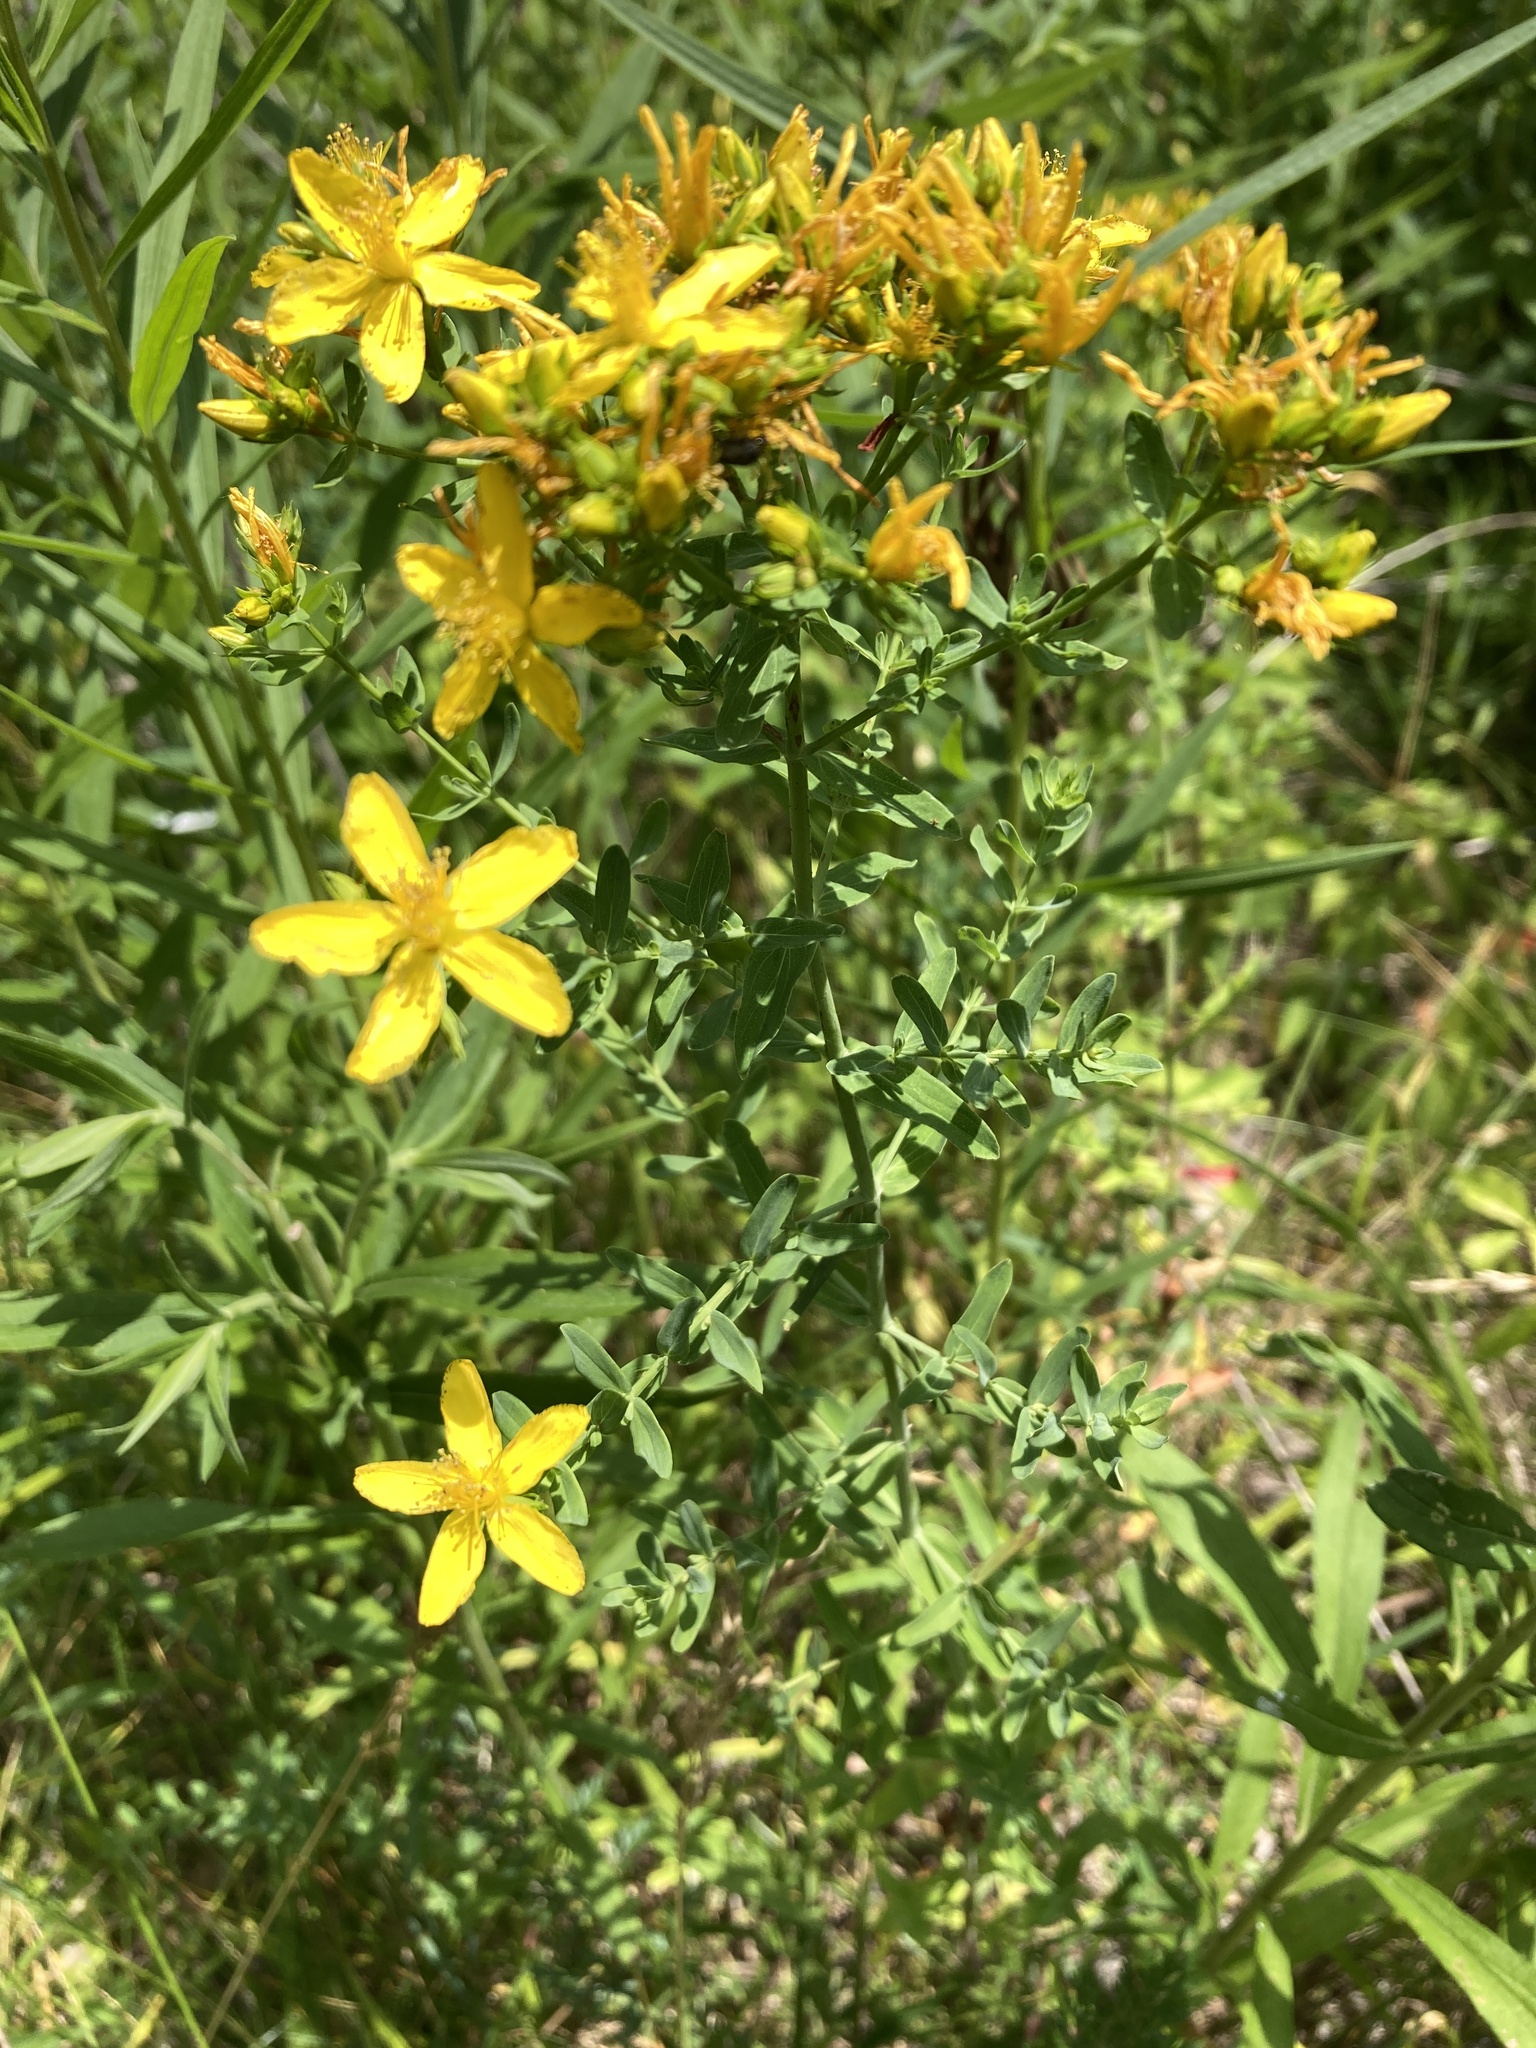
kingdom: Plantae
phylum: Tracheophyta
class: Magnoliopsida
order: Malpighiales
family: Hypericaceae
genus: Hypericum
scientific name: Hypericum perforatum
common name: Common st. johnswort
